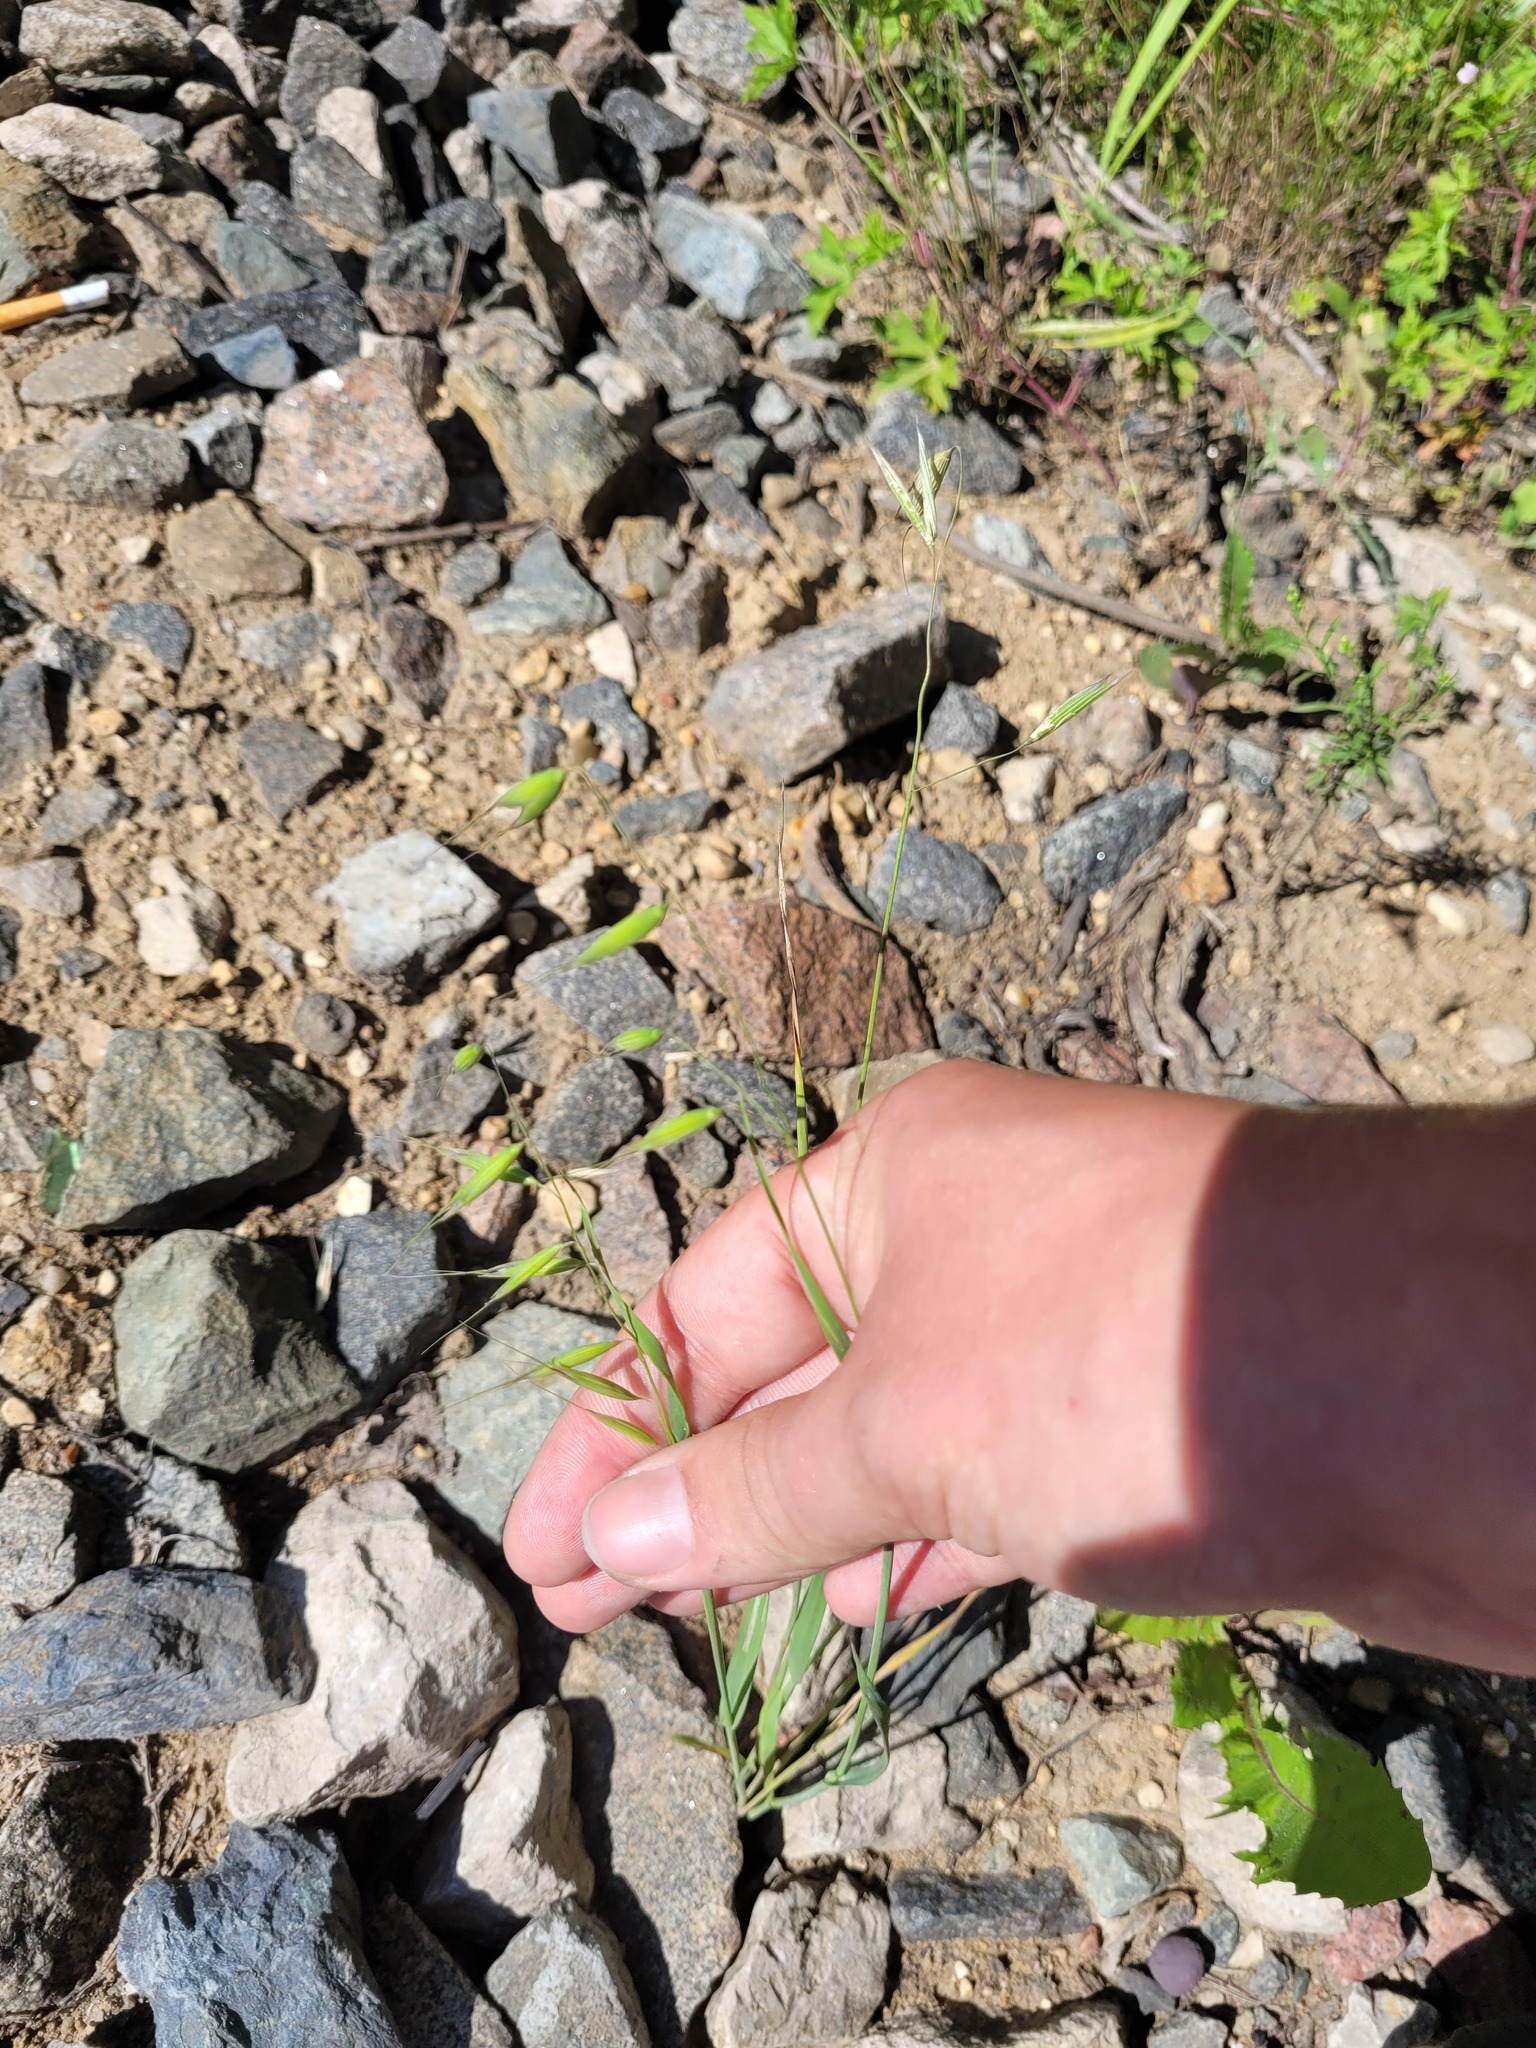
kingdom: Plantae
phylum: Tracheophyta
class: Liliopsida
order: Poales
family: Poaceae
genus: Avena
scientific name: Avena fatua
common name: Wild oat
